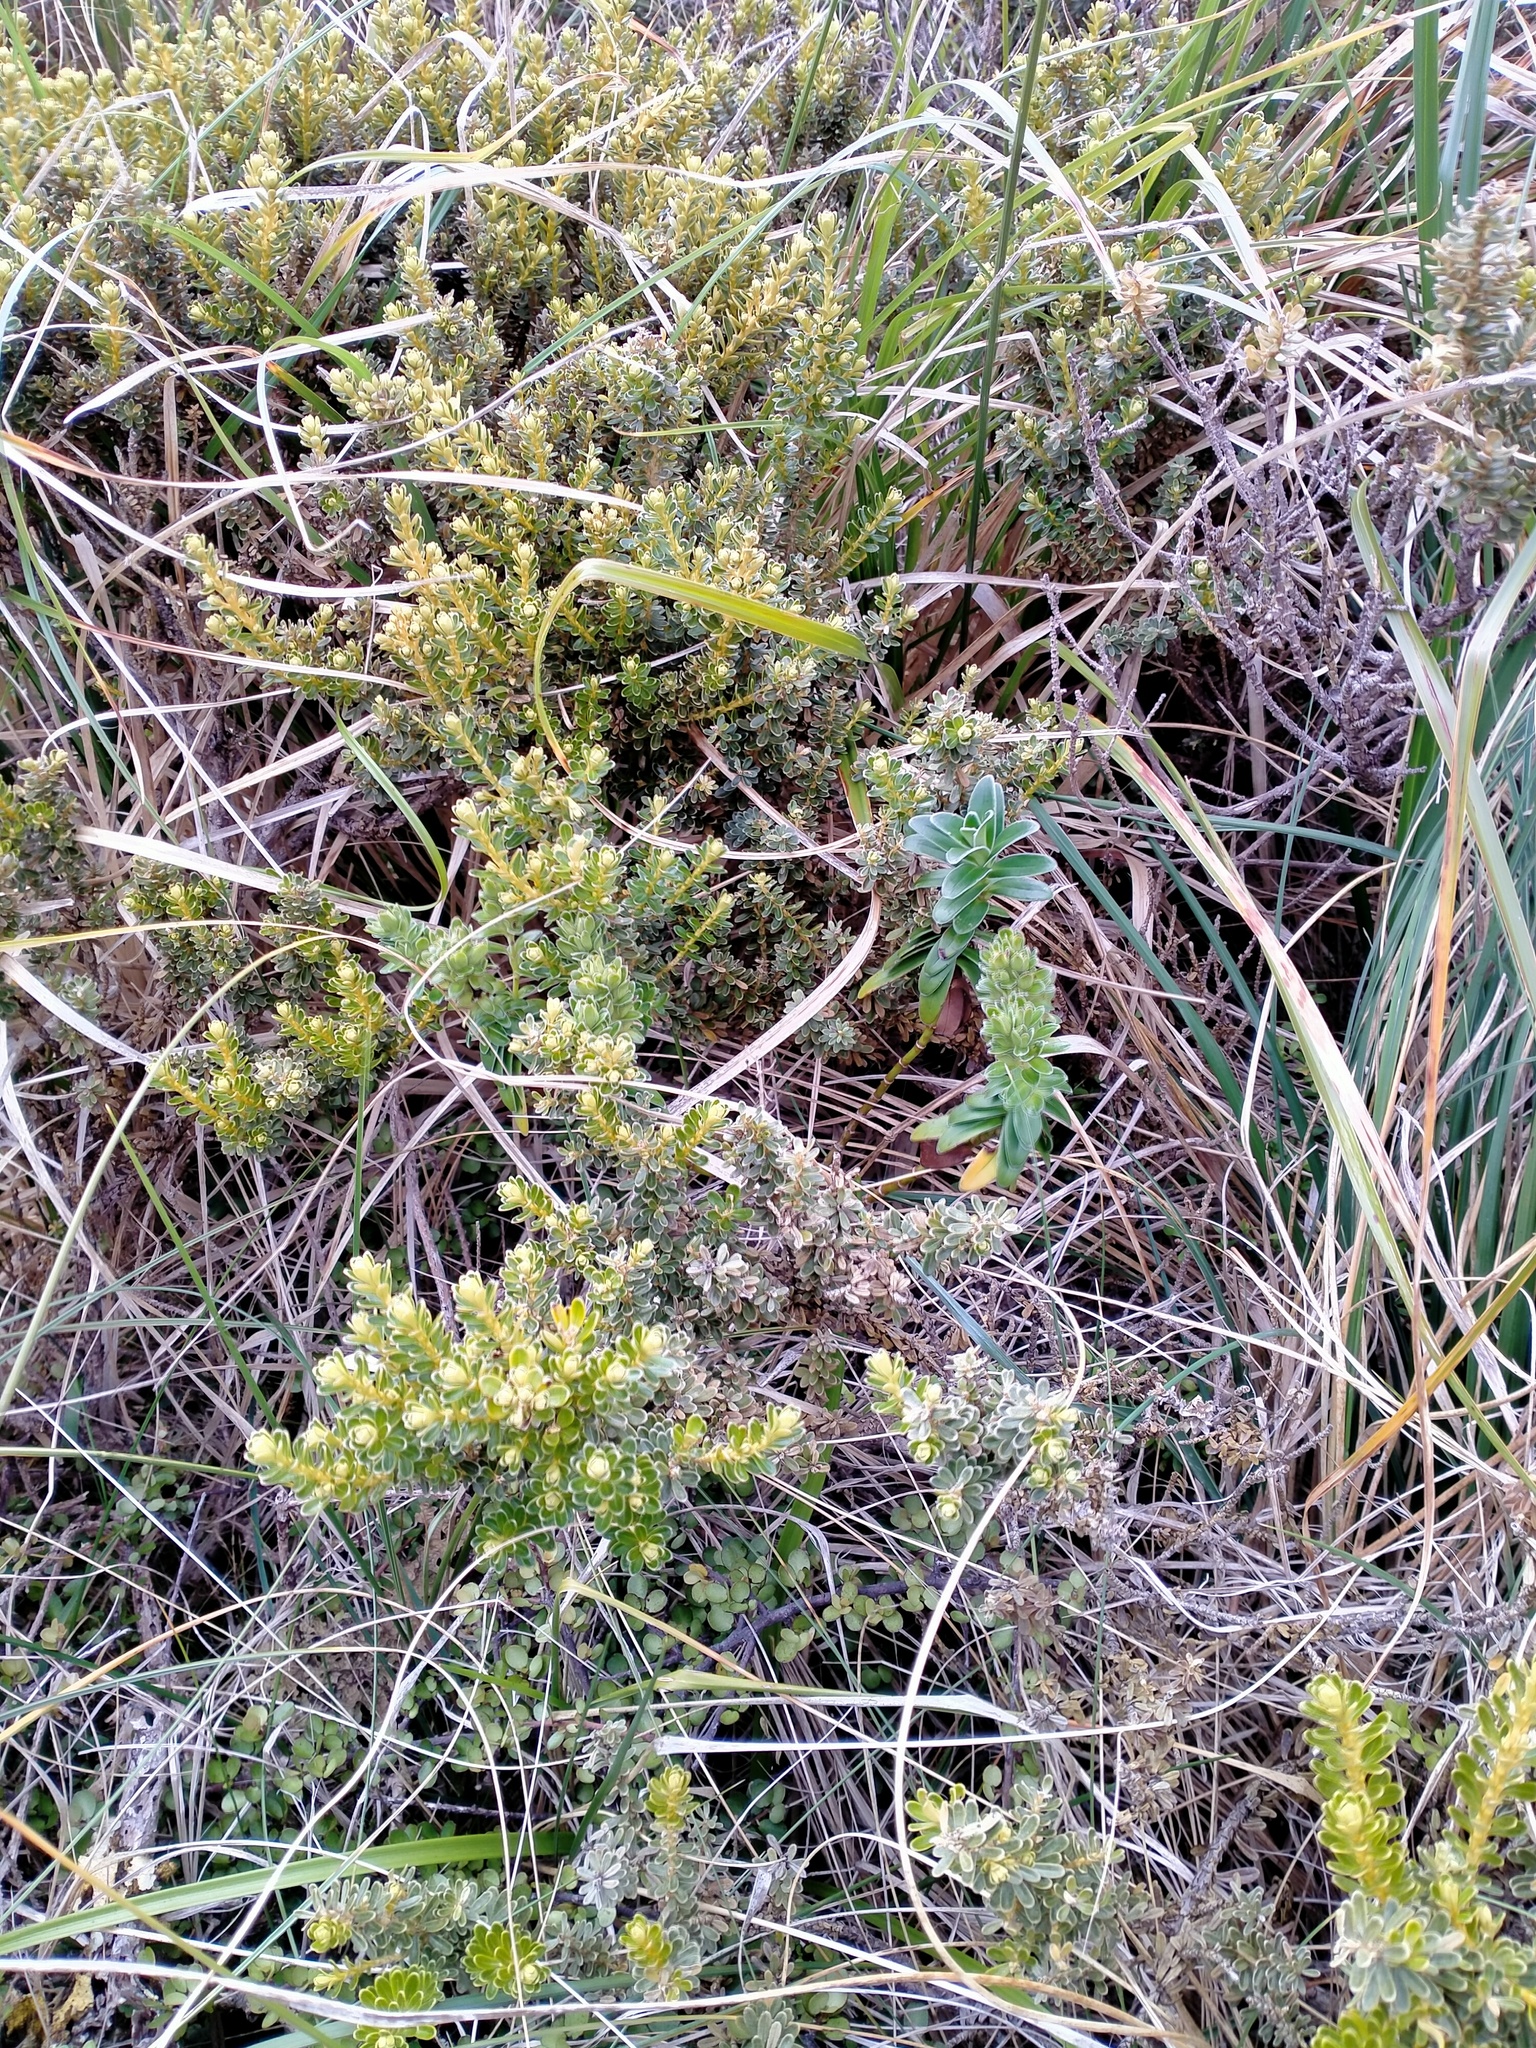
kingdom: Plantae
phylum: Tracheophyta
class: Magnoliopsida
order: Asterales
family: Asteraceae
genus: Ozothamnus
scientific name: Ozothamnus leptophyllus
